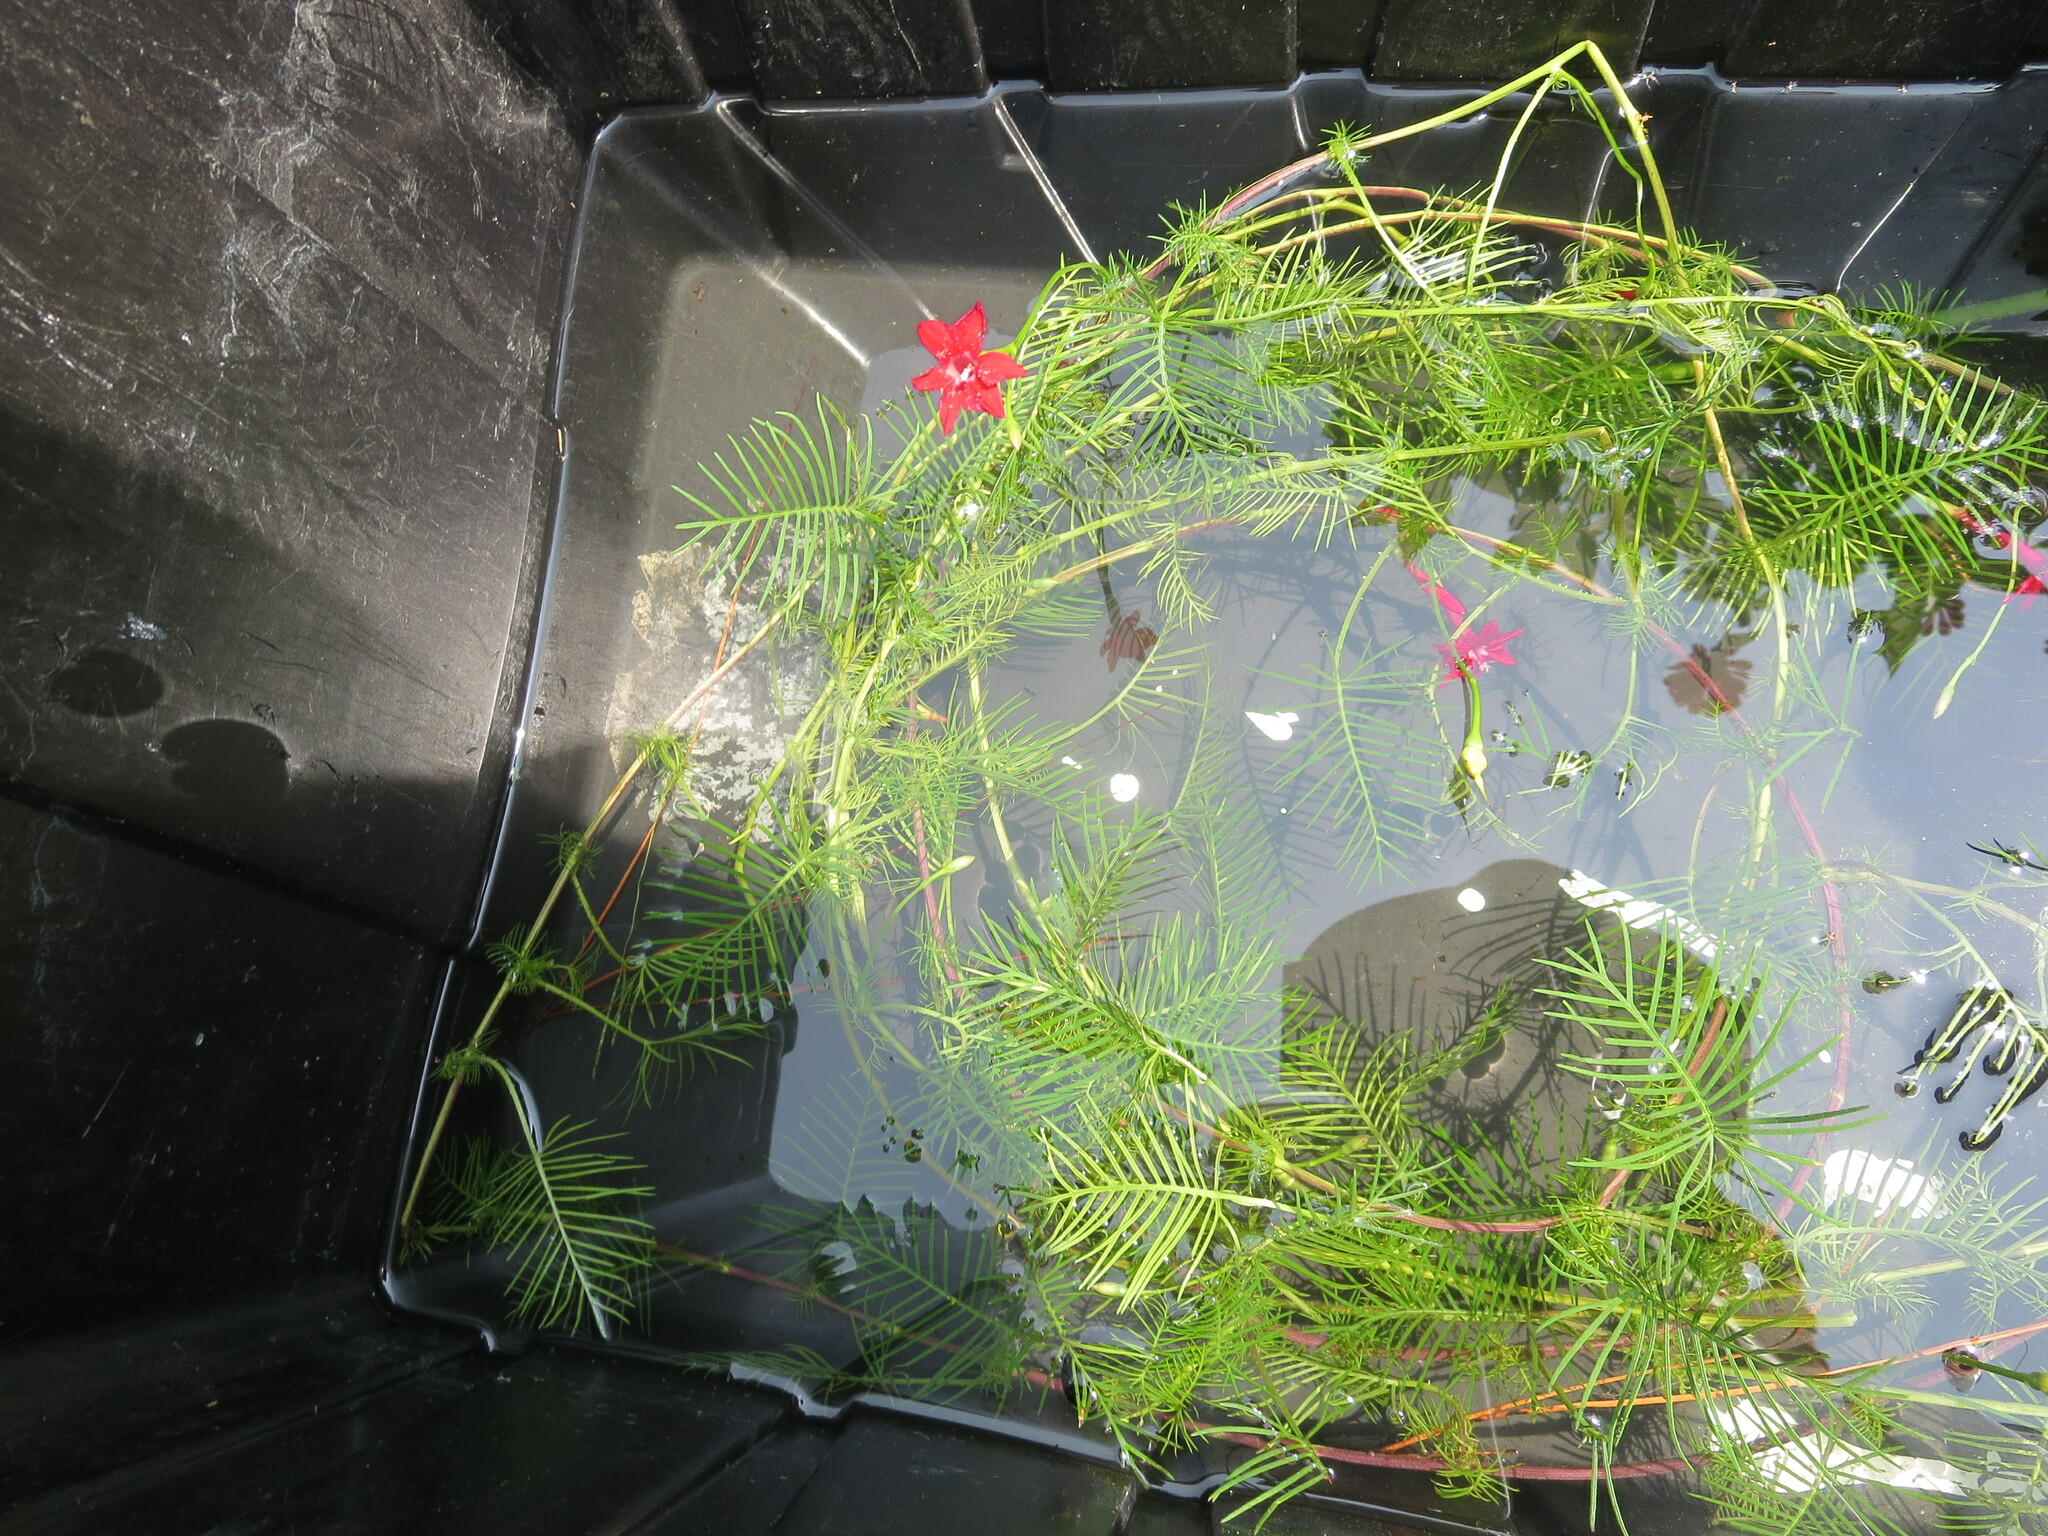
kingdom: Plantae
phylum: Tracheophyta
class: Magnoliopsida
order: Solanales
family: Convolvulaceae
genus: Ipomoea
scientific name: Ipomoea quamoclit
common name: Cypress vine
